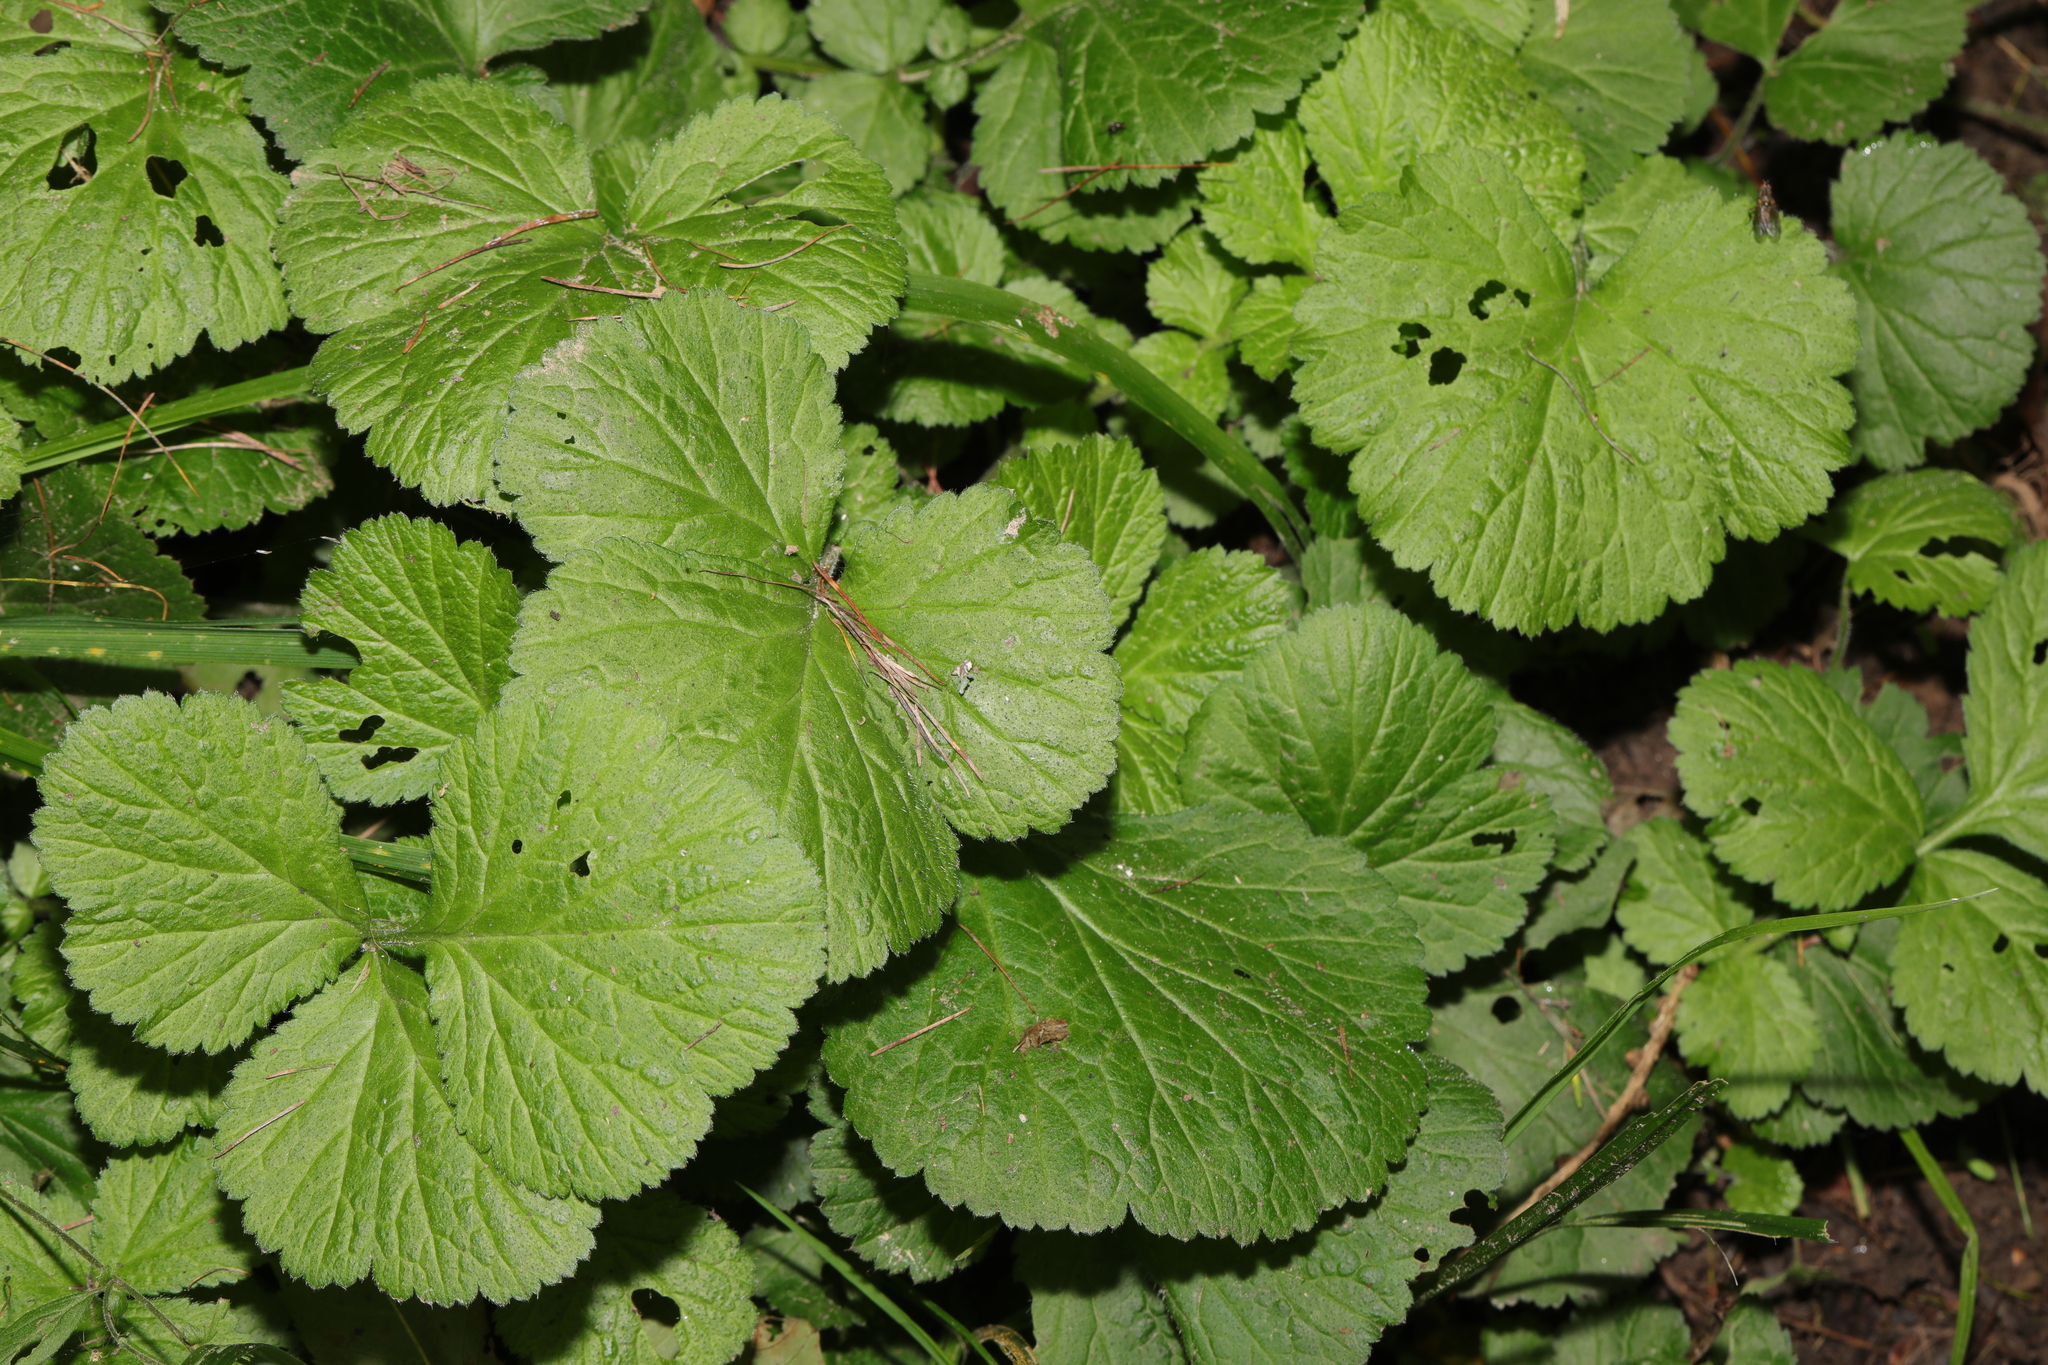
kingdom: Plantae
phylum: Tracheophyta
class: Magnoliopsida
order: Rosales
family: Rosaceae
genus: Geum
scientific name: Geum urbanum
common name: Wood avens
